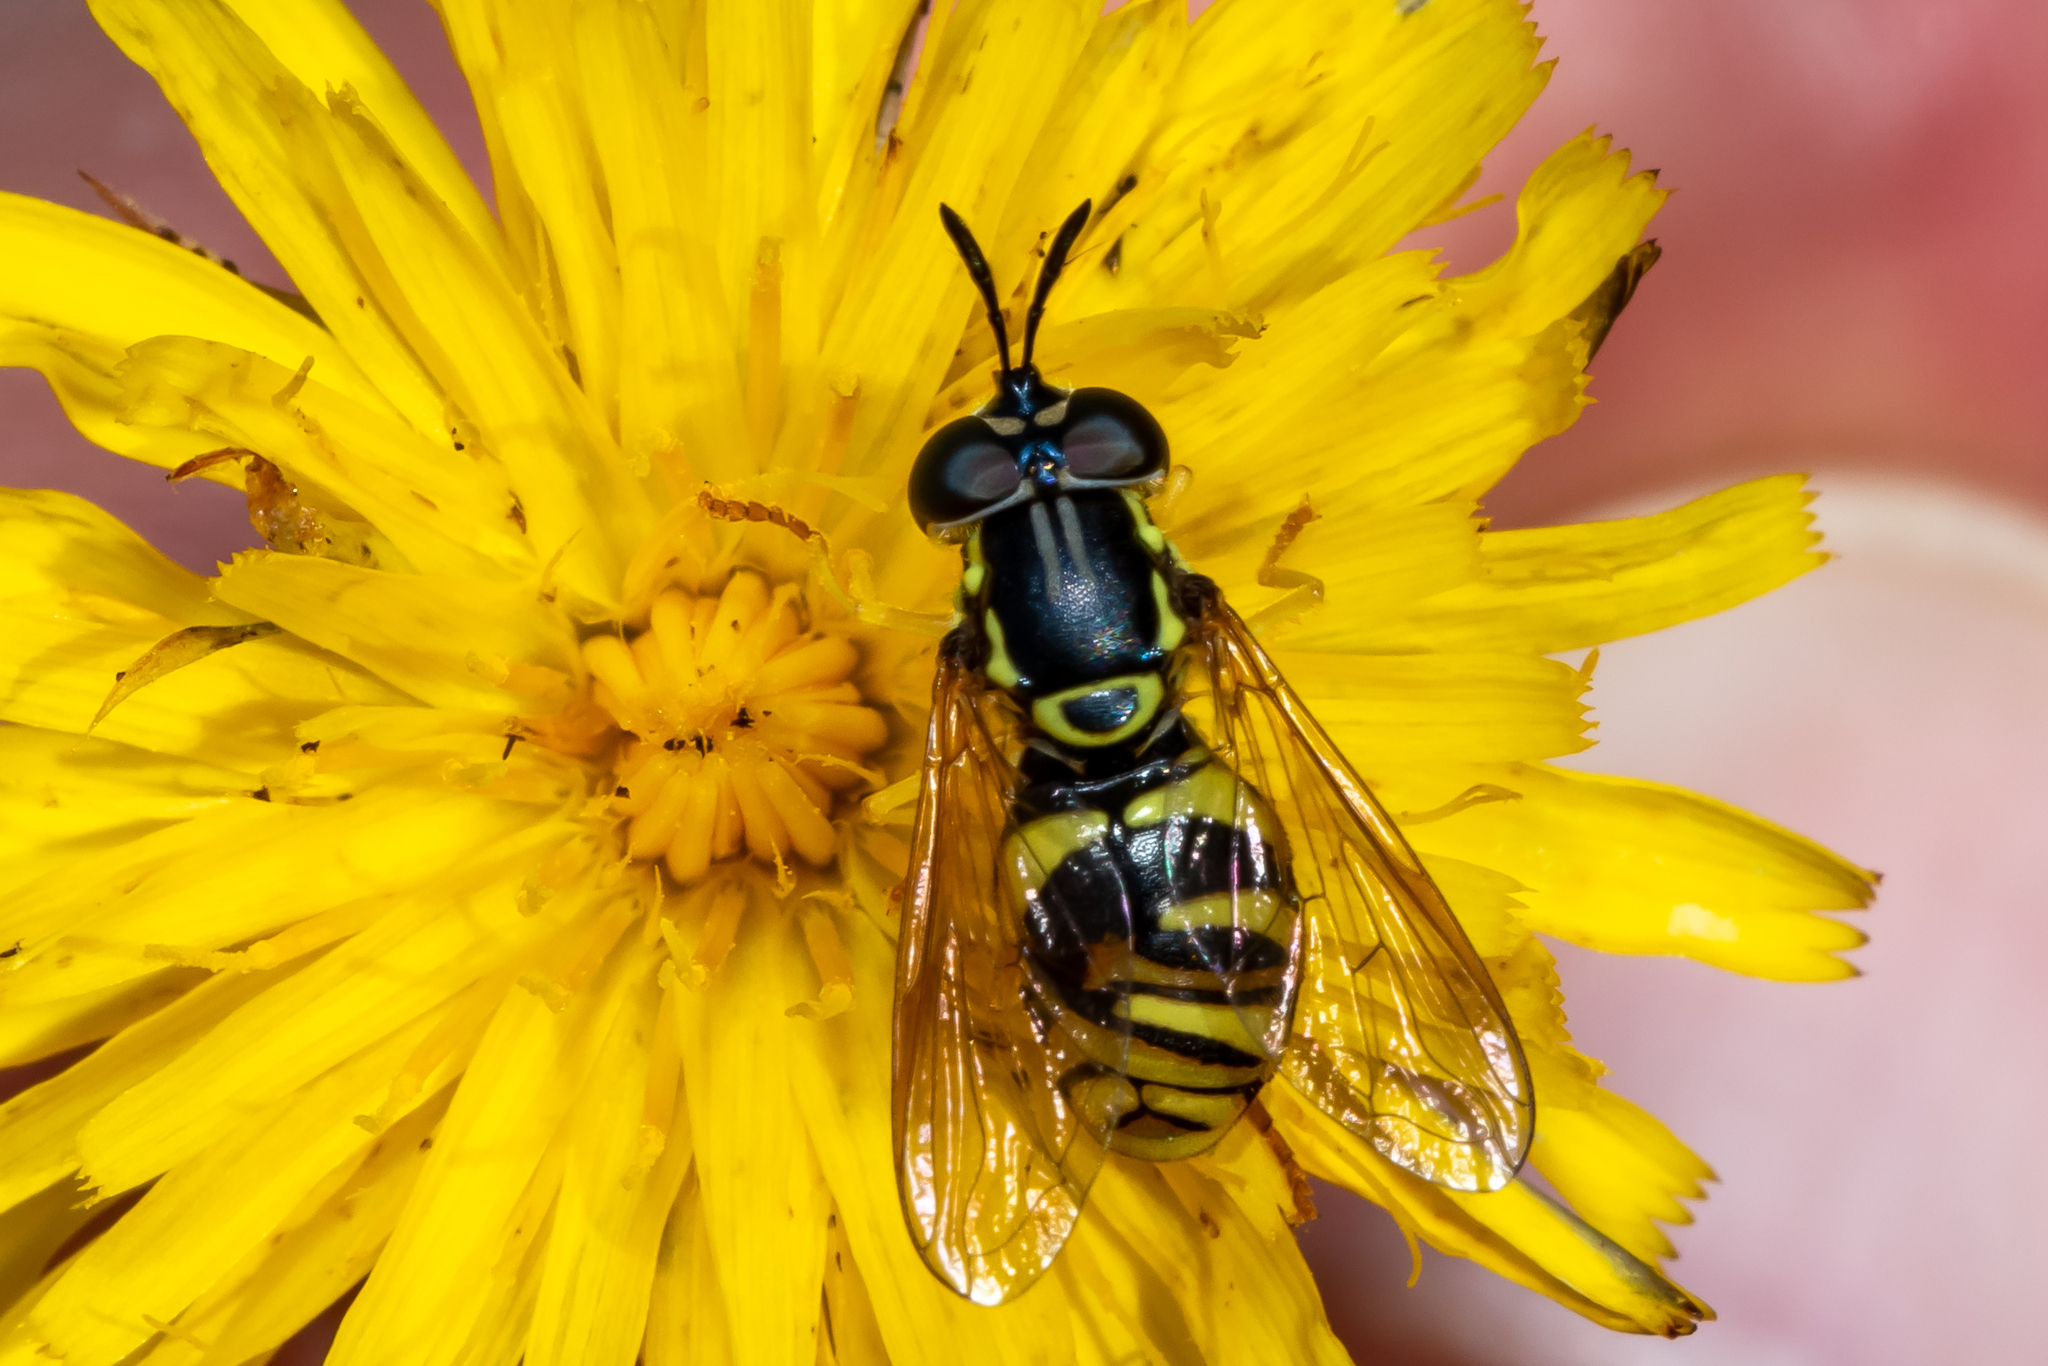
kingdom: Animalia
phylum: Arthropoda
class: Insecta
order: Diptera
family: Syrphidae
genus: Chrysotoxum
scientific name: Chrysotoxum verralli
